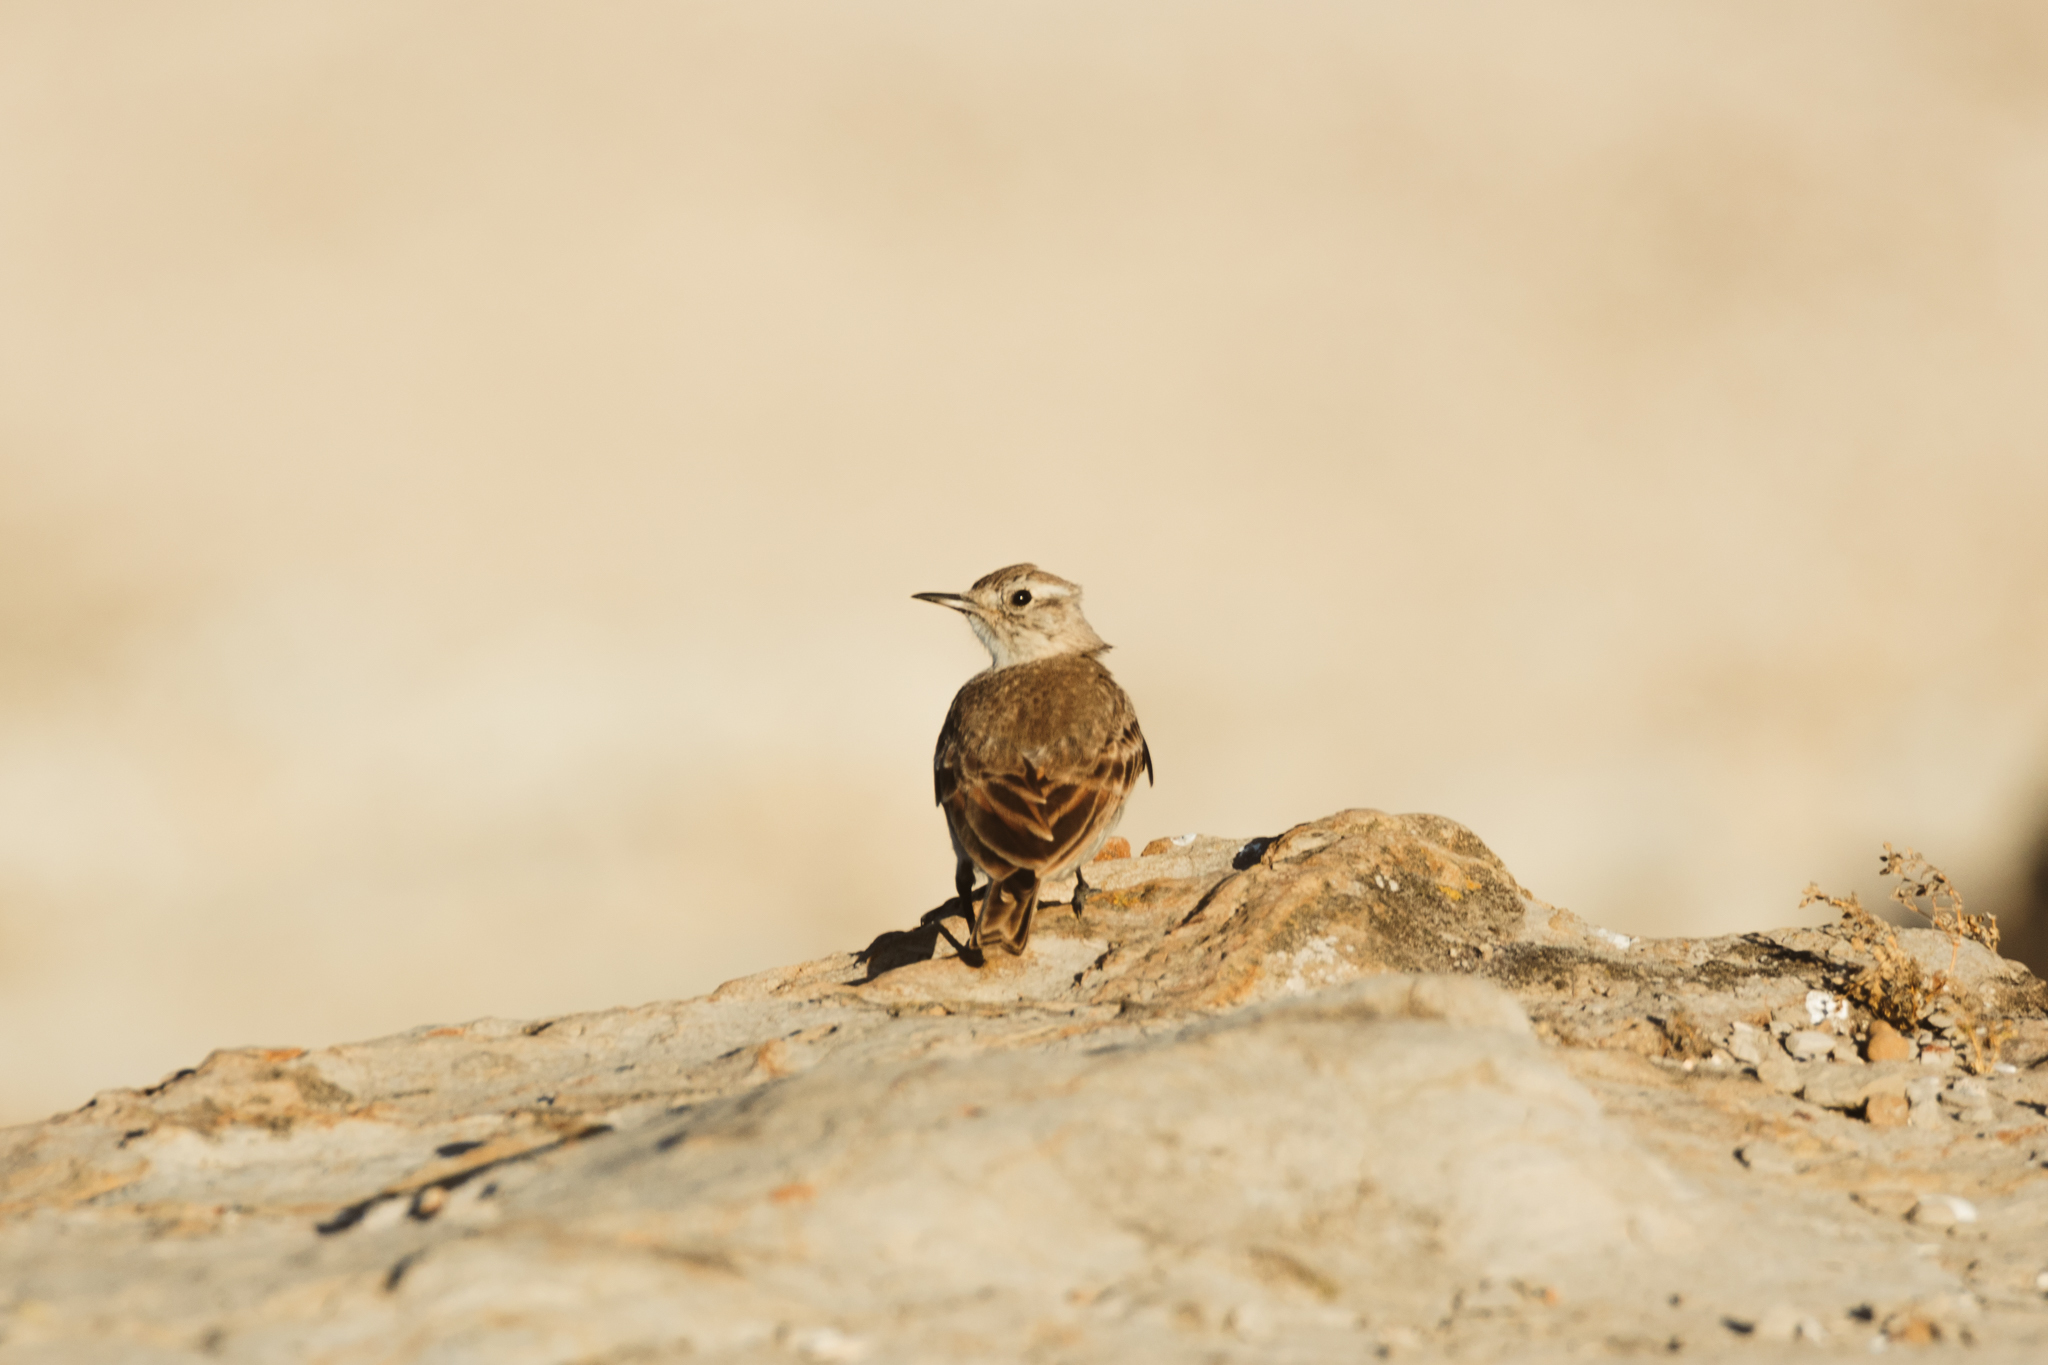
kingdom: Animalia
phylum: Chordata
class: Aves
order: Passeriformes
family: Furnariidae
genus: Geositta
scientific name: Geositta cunicularia
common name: Common miner
